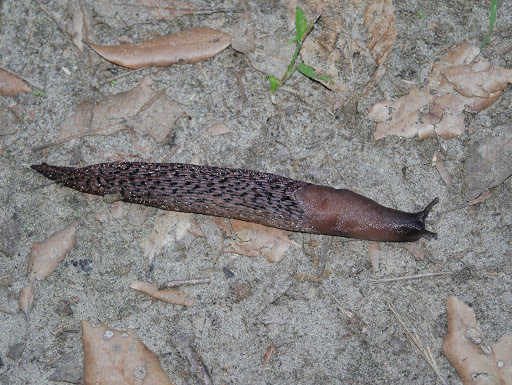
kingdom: Animalia
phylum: Mollusca
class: Gastropoda
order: Stylommatophora
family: Limacidae
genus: Limax
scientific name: Limax dacampi
